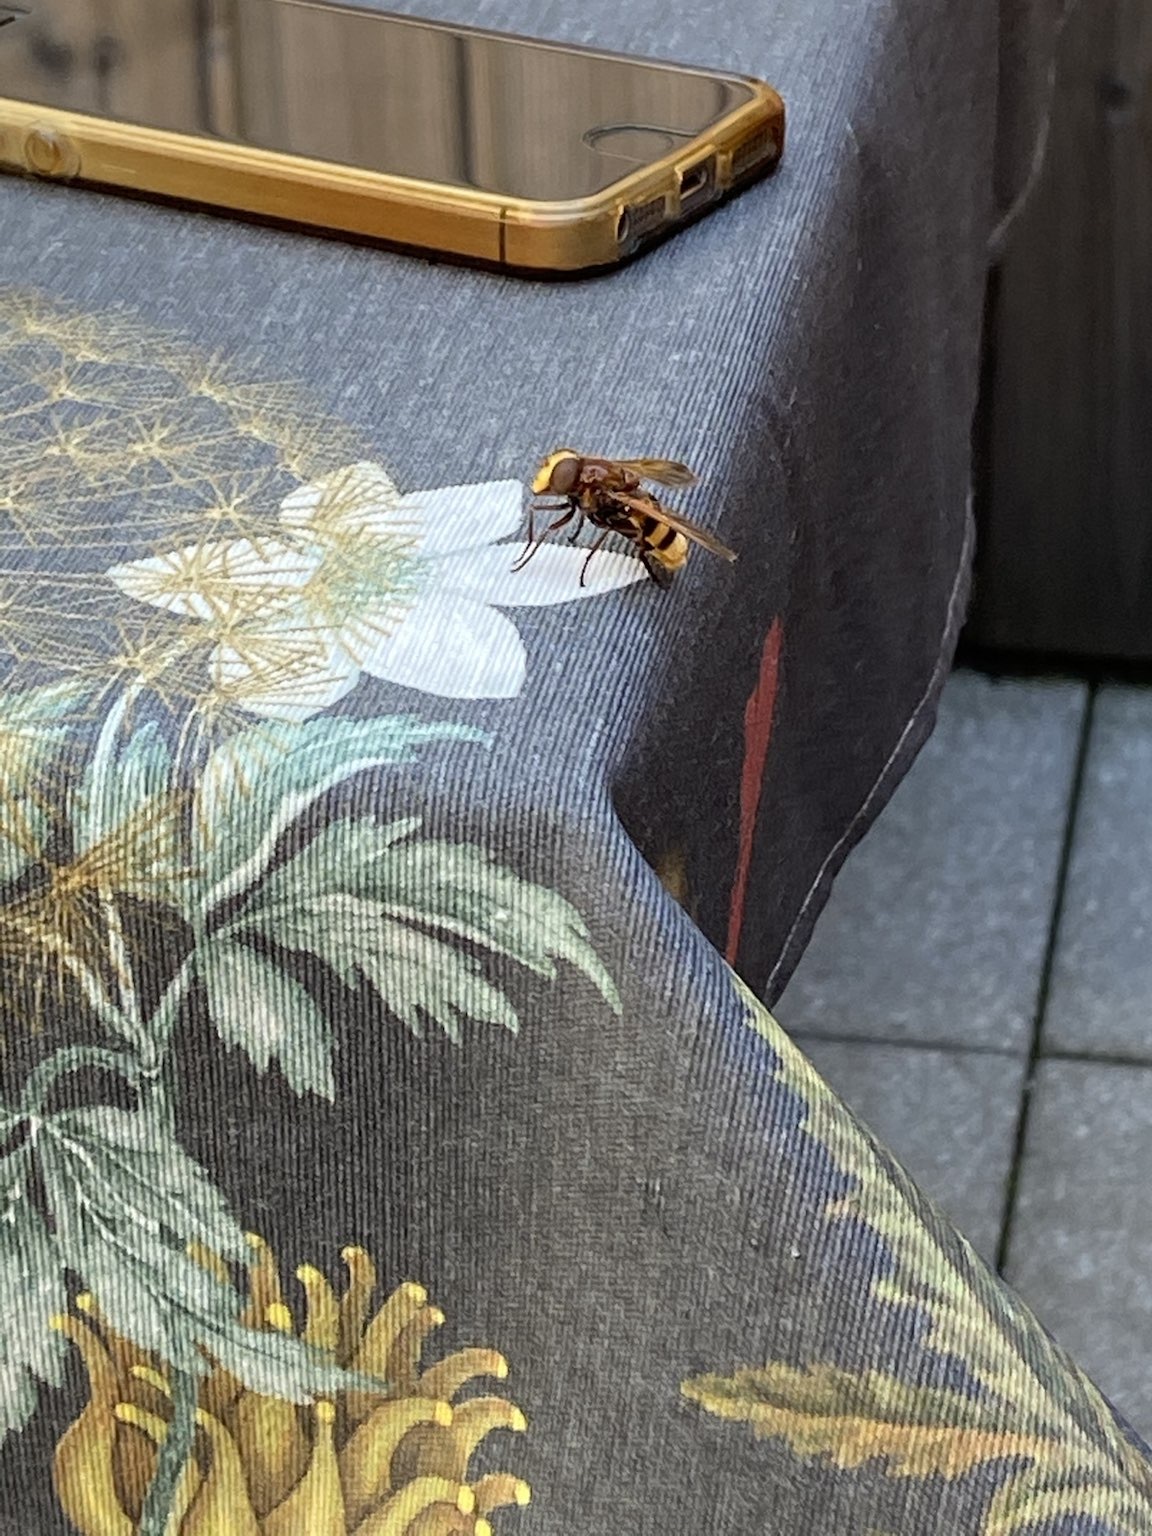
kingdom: Animalia
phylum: Arthropoda
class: Insecta
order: Diptera
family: Syrphidae
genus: Volucella
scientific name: Volucella zonaria
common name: Hornet hoverfly
